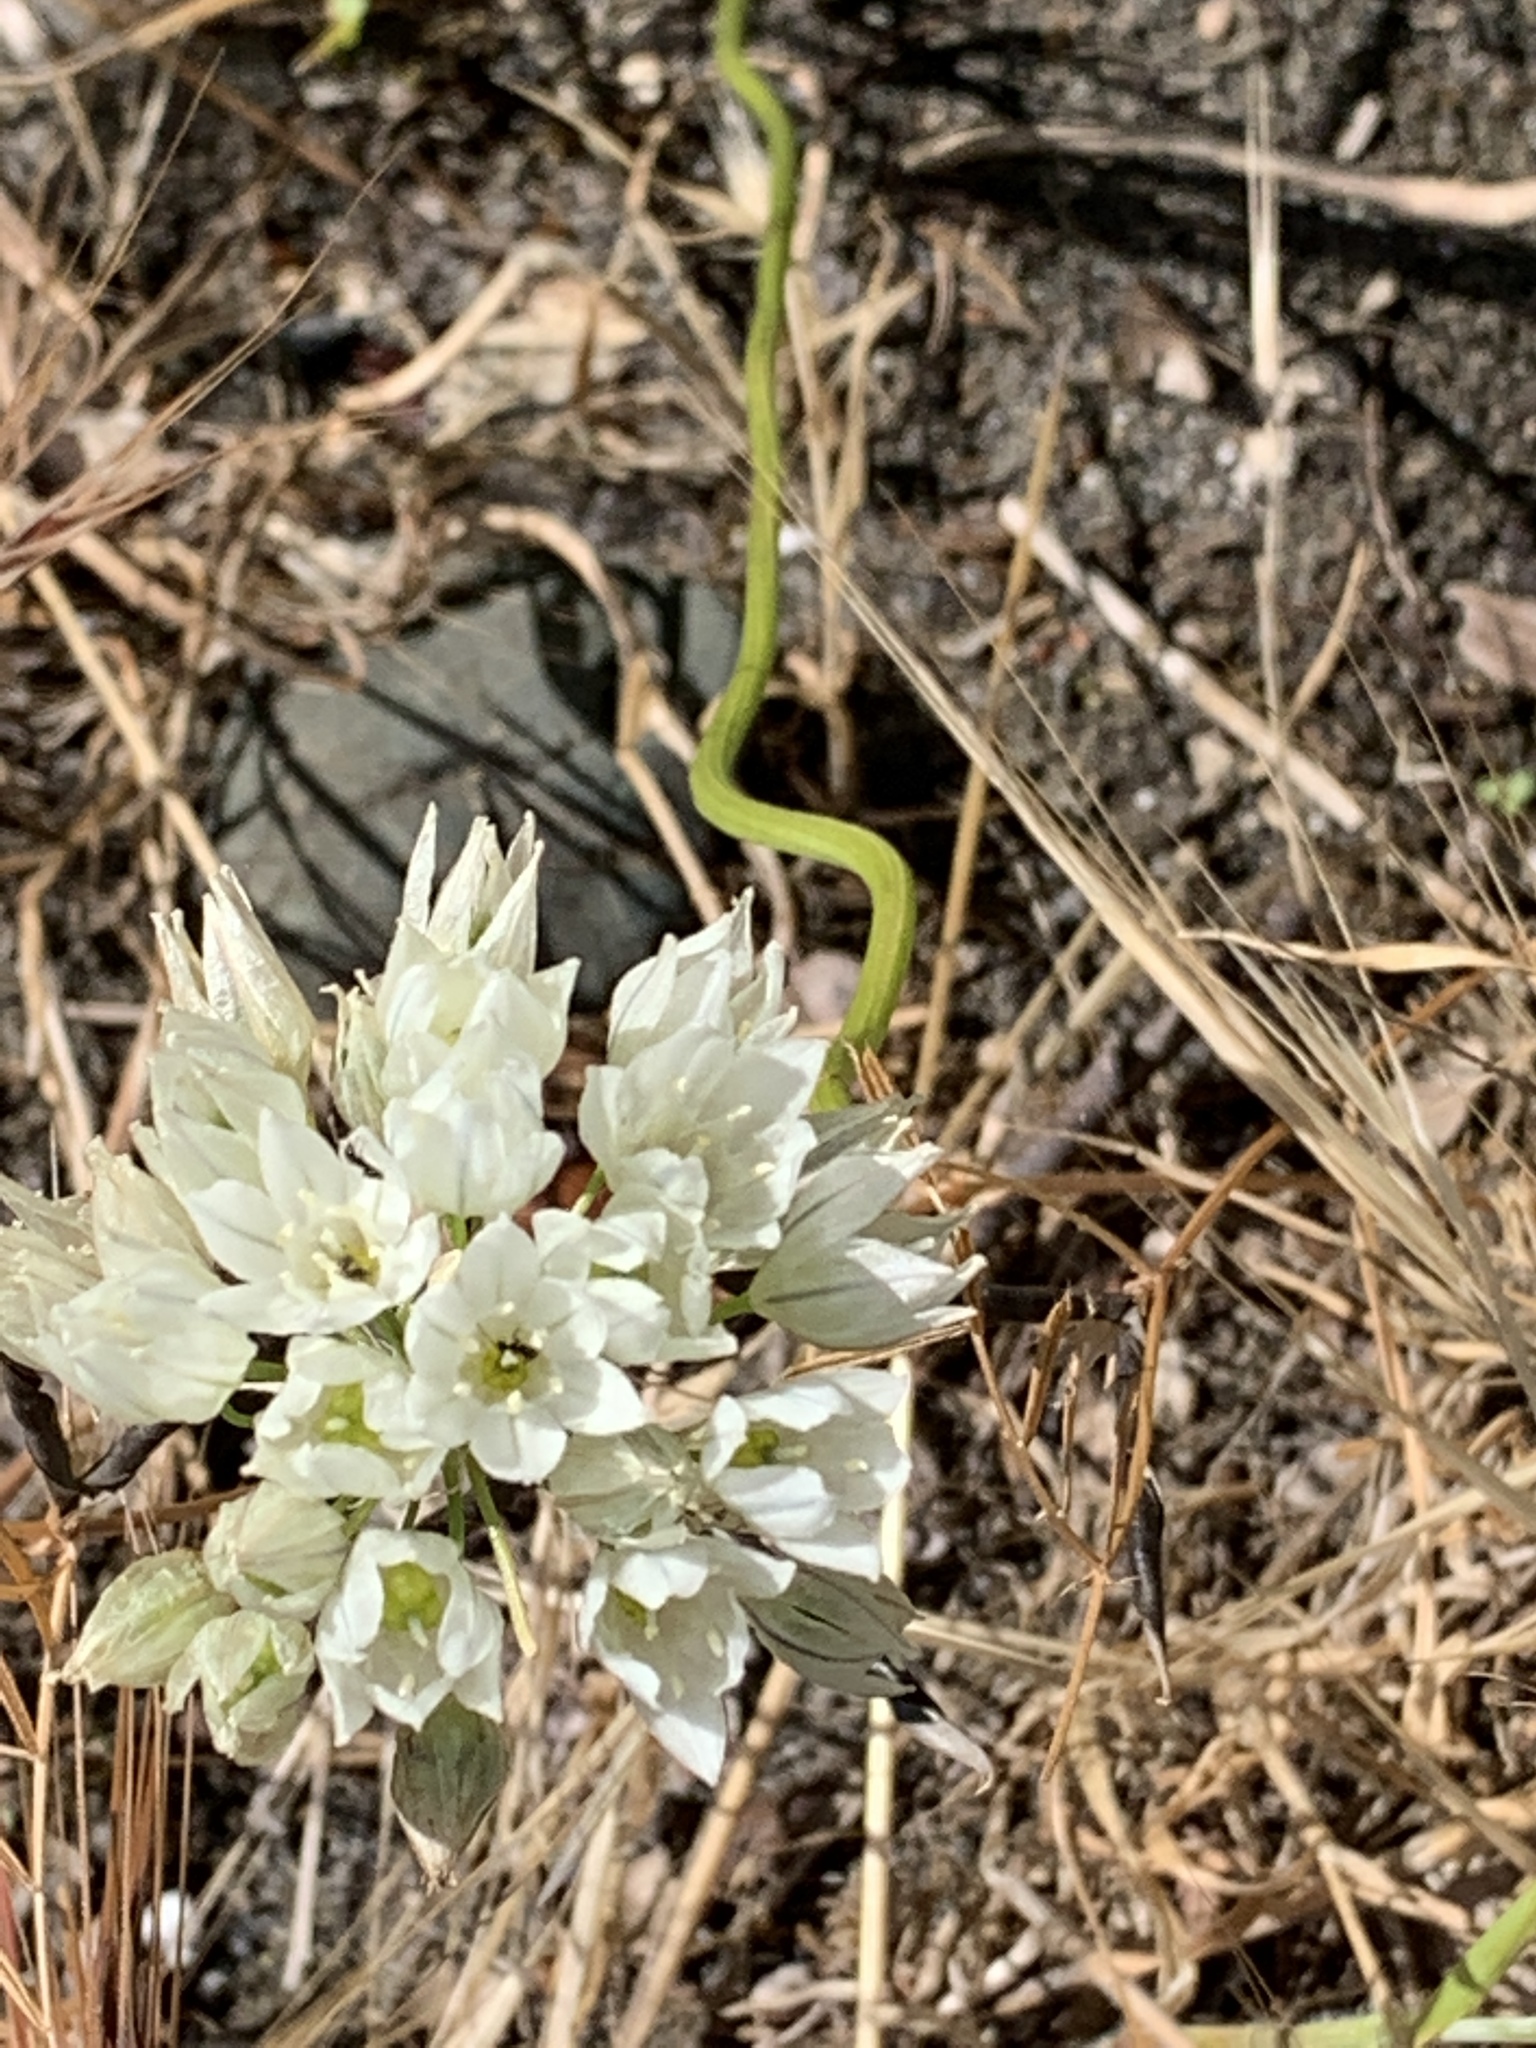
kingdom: Plantae
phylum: Tracheophyta
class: Liliopsida
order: Asparagales
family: Asparagaceae
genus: Triteleia
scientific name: Triteleia hyacinthina
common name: White brodiaea
